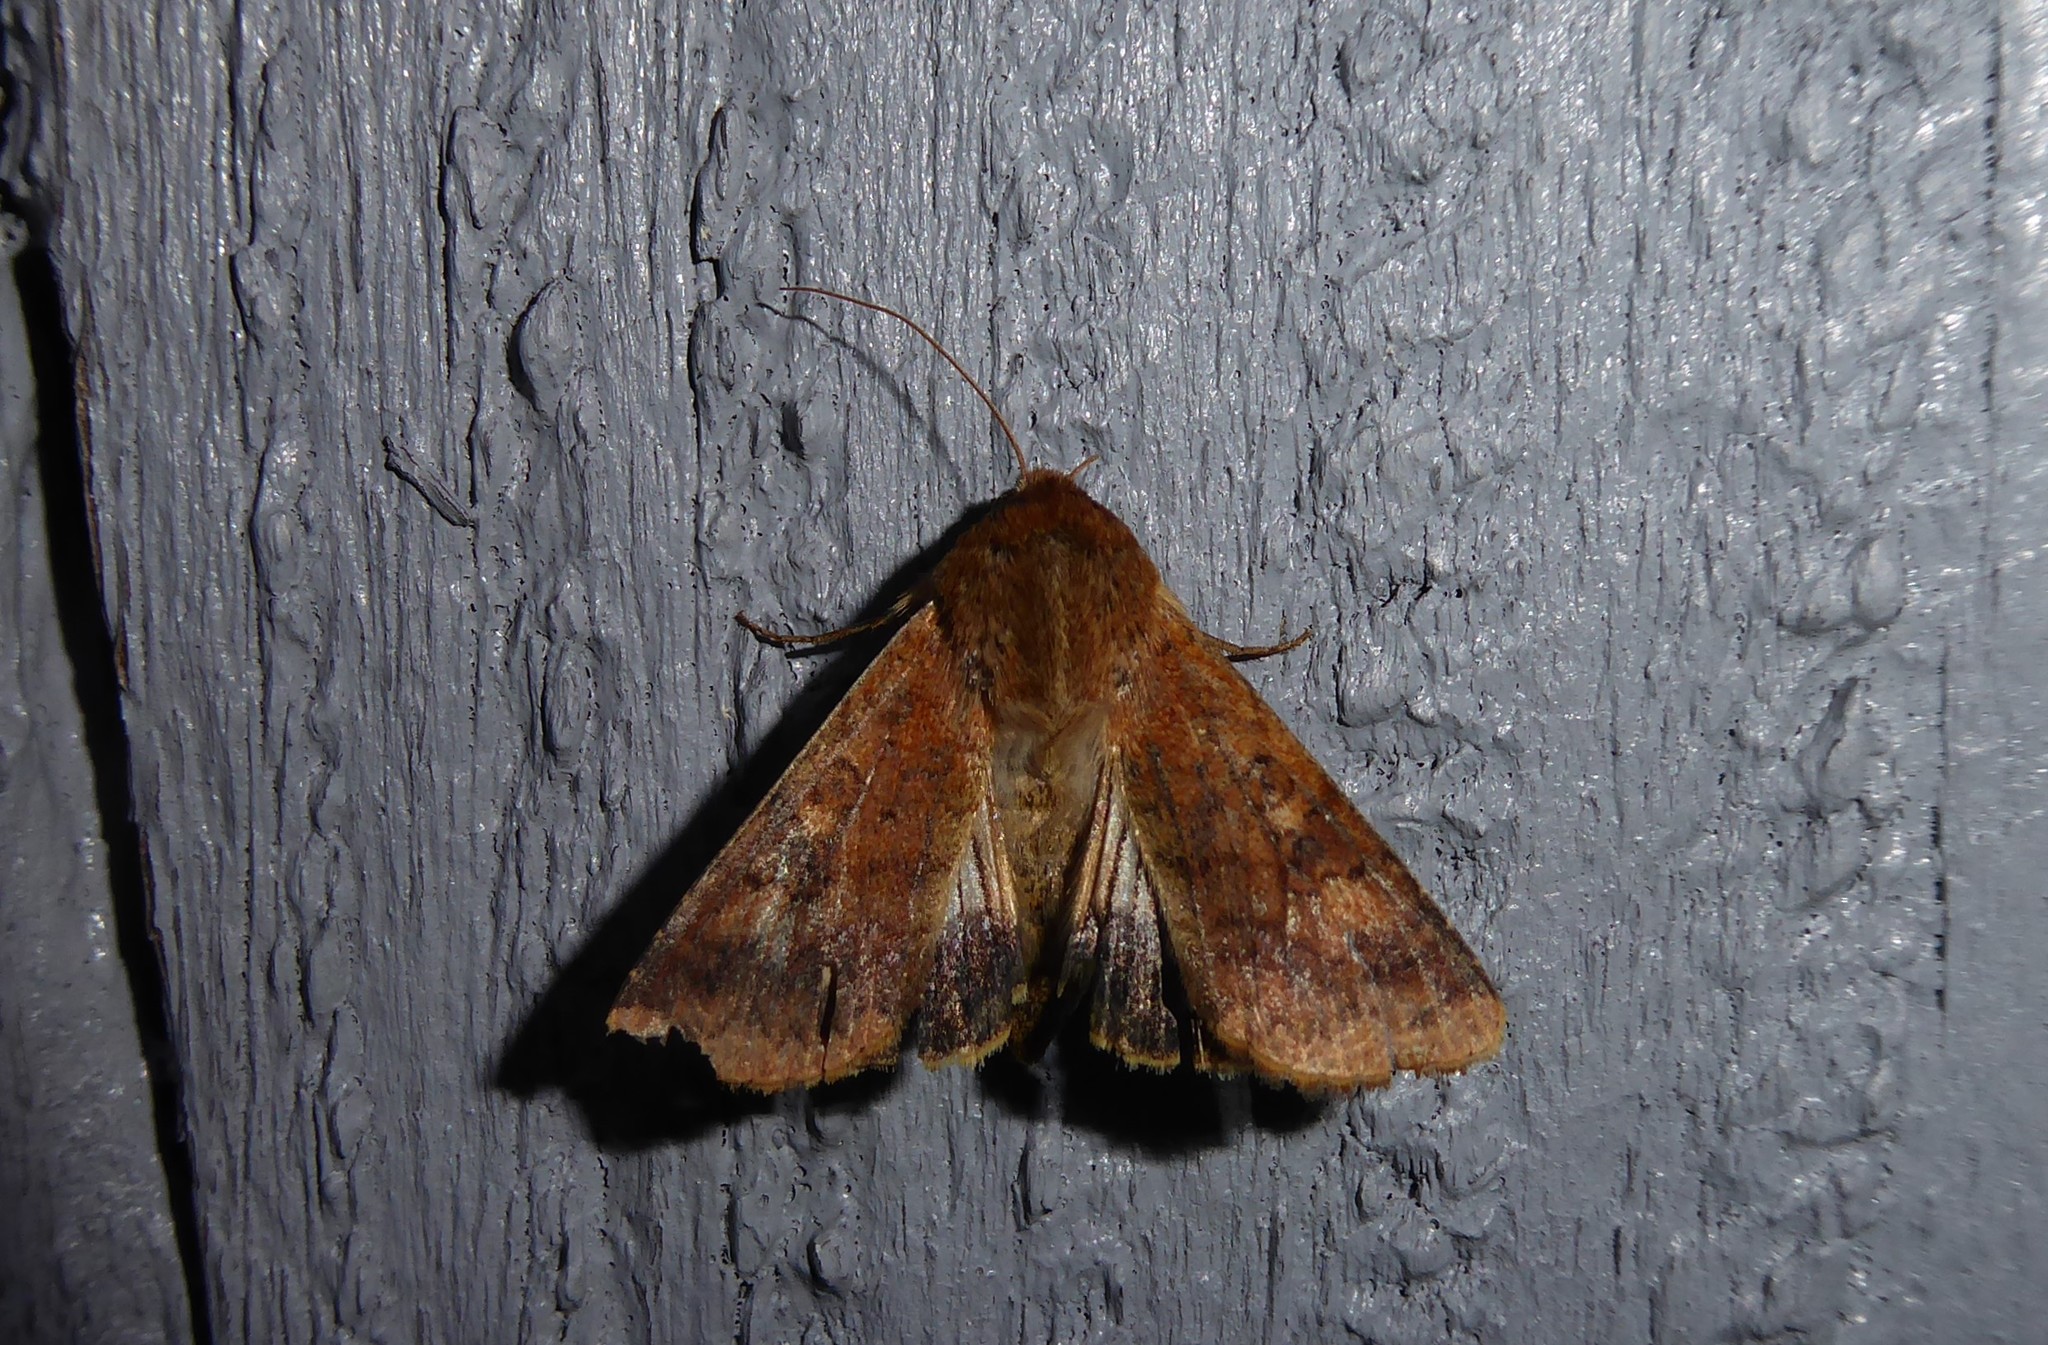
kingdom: Animalia
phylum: Arthropoda
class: Insecta
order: Lepidoptera
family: Noctuidae
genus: Helicoverpa
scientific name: Helicoverpa armigera
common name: Cotton bollworm
